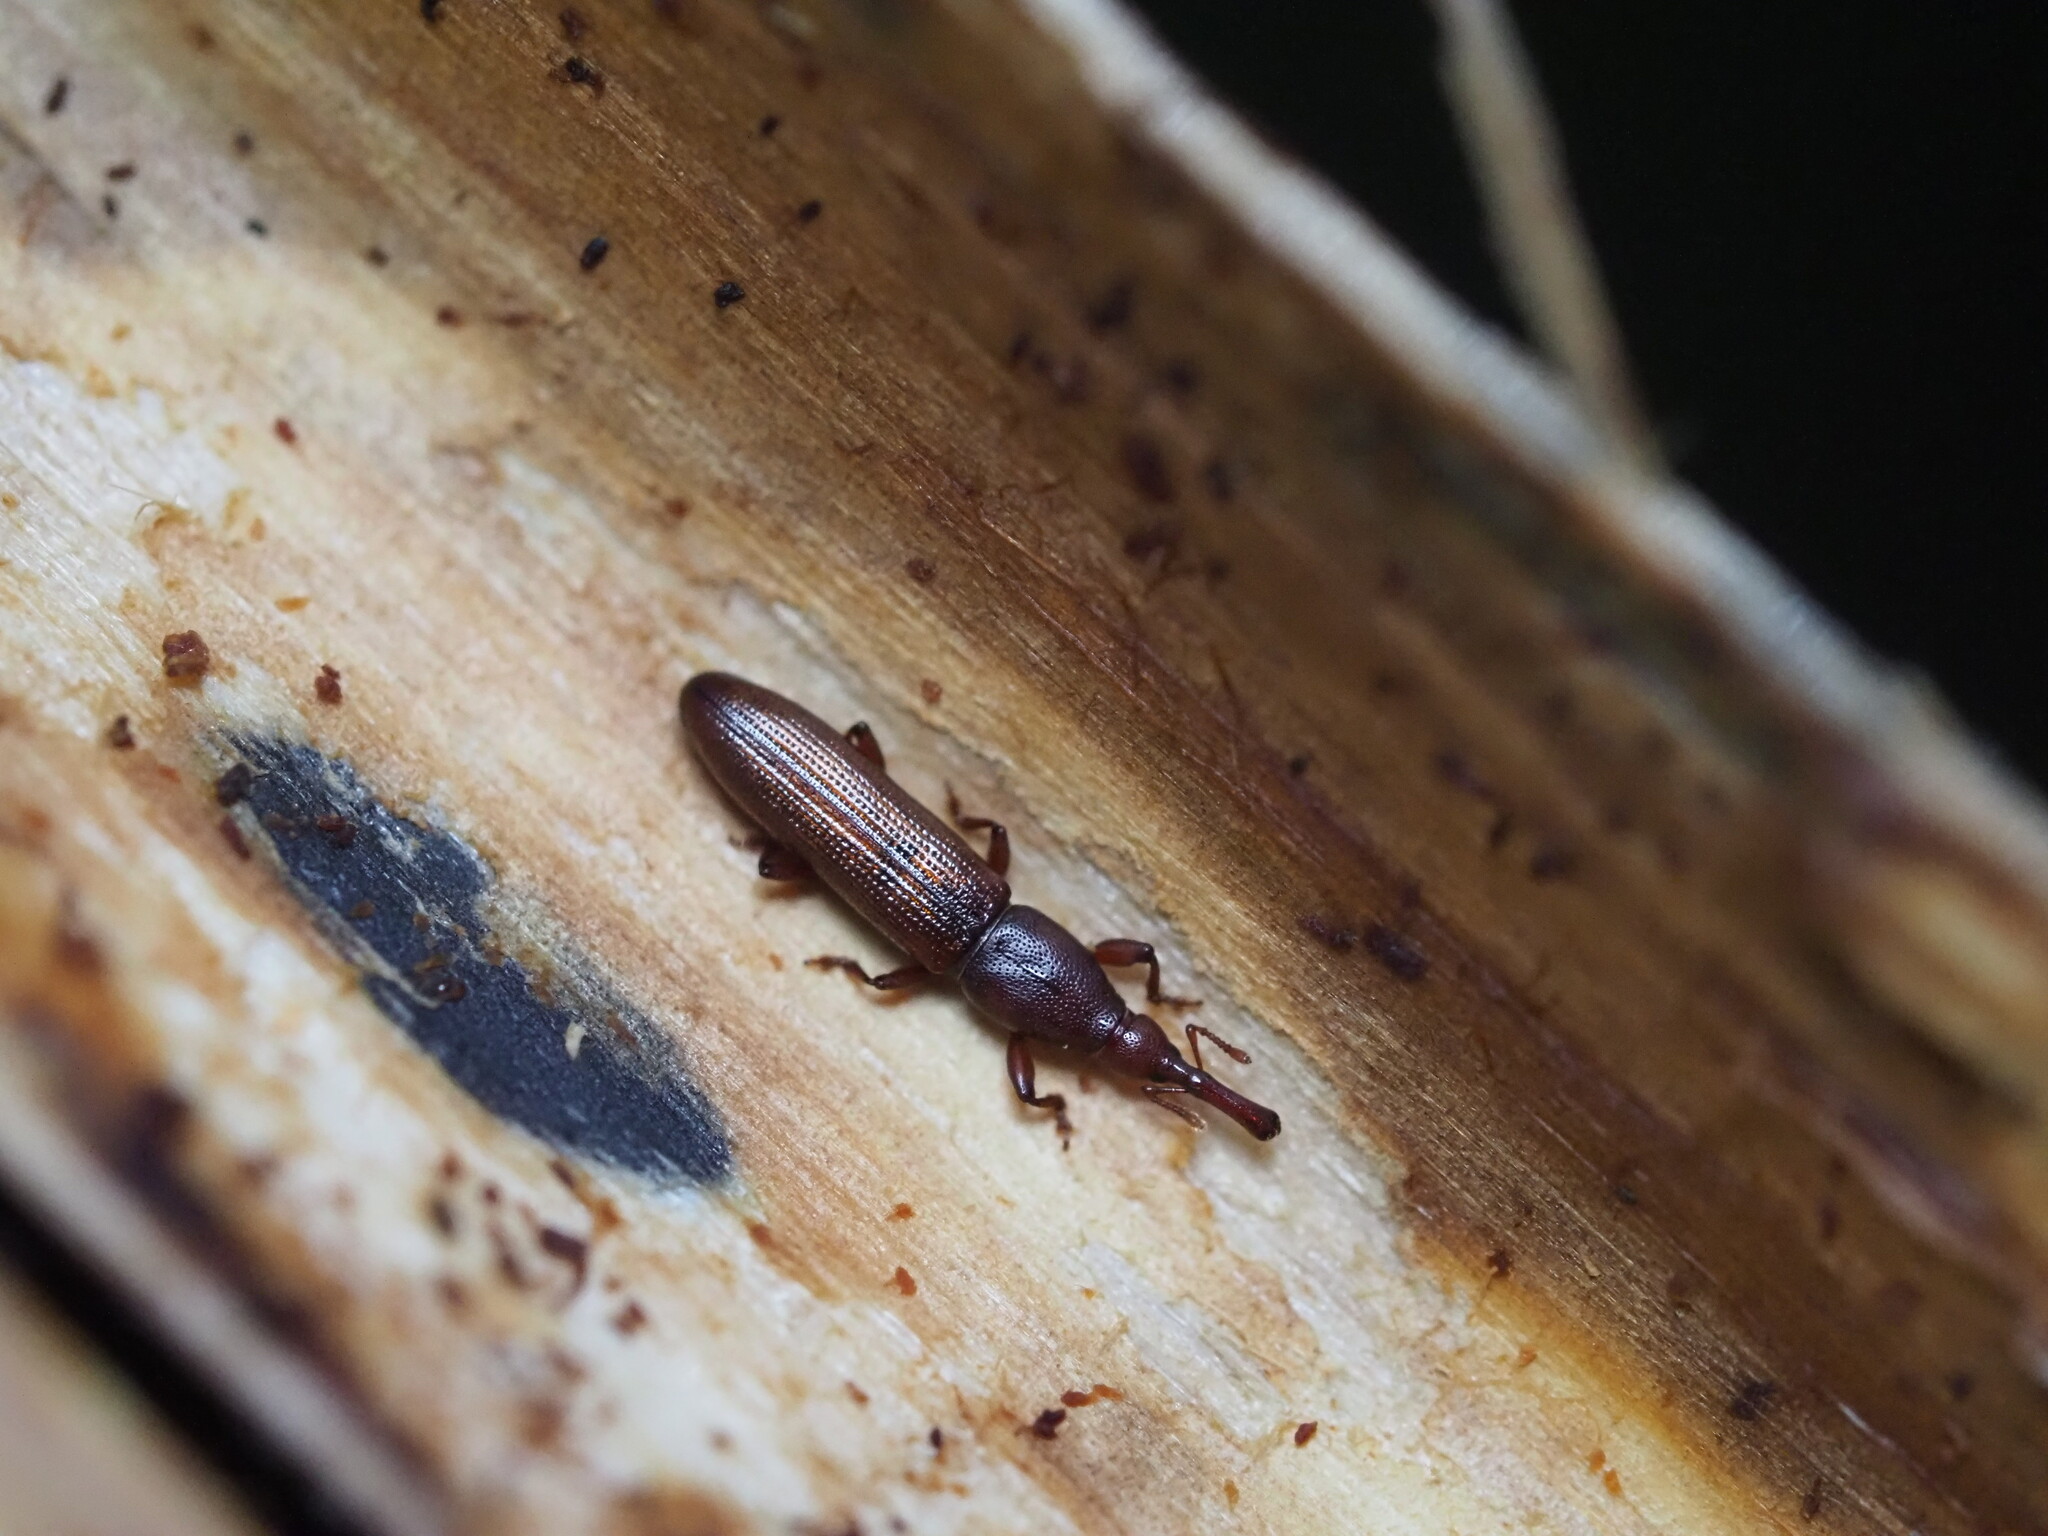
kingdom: Animalia
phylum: Arthropoda
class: Insecta
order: Coleoptera
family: Curculionidae
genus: Stenotrupis
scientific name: Stenotrupis prolixa
